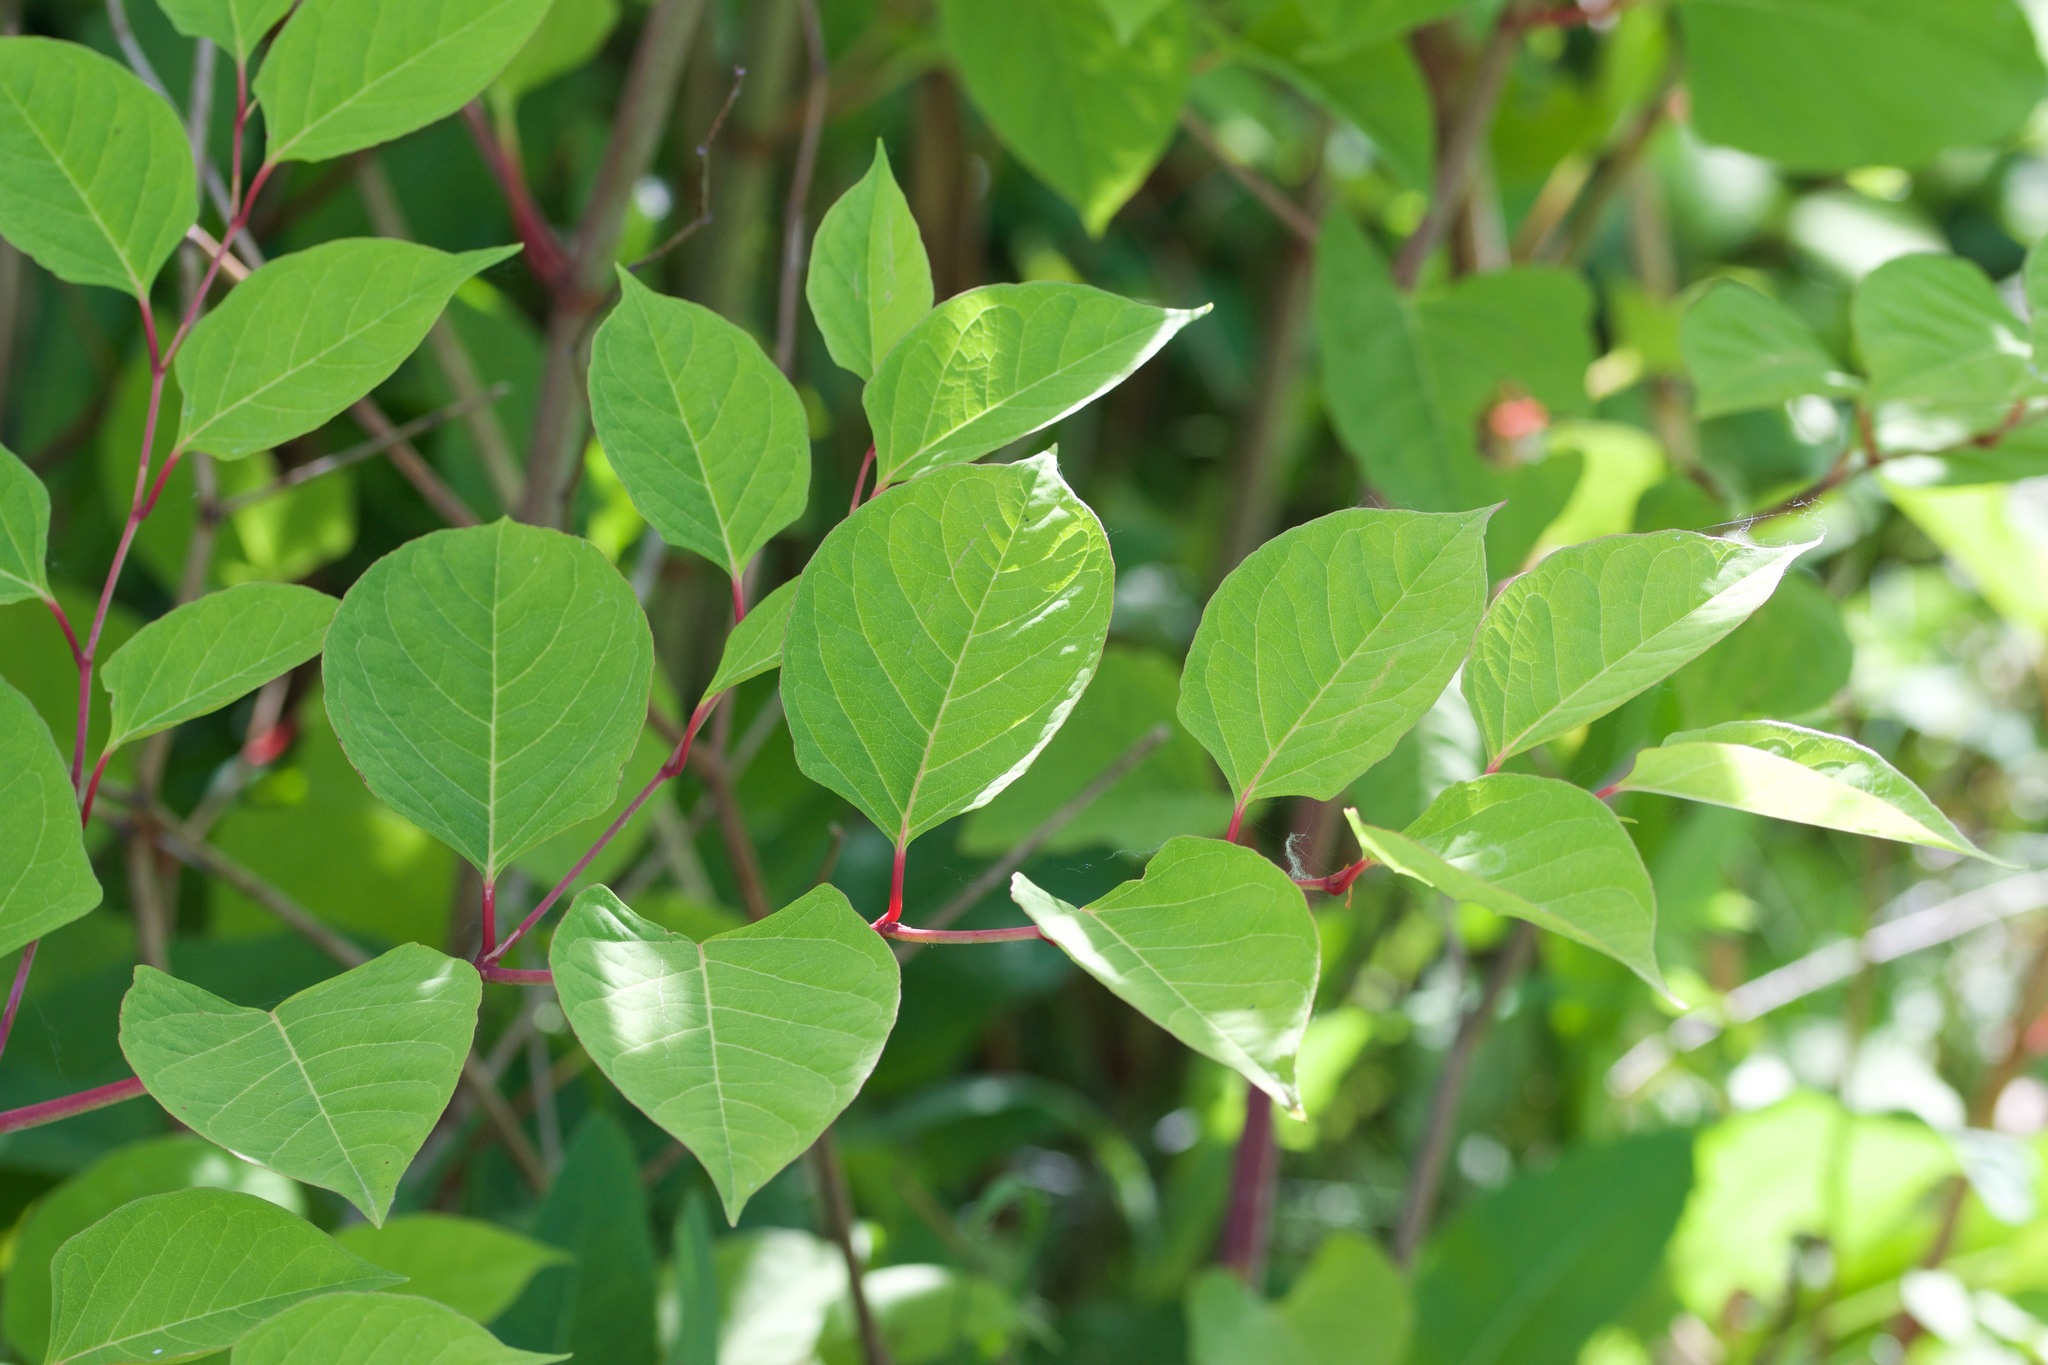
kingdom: Plantae
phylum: Tracheophyta
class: Magnoliopsida
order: Caryophyllales
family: Polygonaceae
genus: Reynoutria
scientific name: Reynoutria japonica
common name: Japanese knotweed
